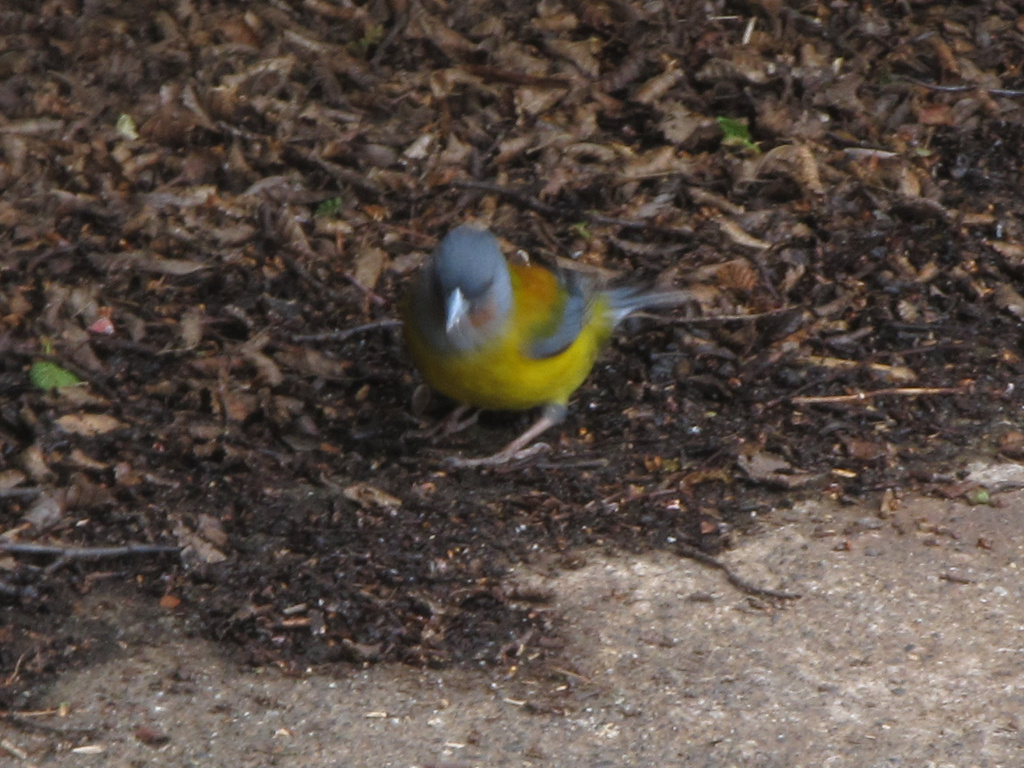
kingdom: Animalia
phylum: Chordata
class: Aves
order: Passeriformes
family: Thraupidae
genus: Phrygilus
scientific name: Phrygilus patagonicus
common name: Patagonian sierra finch
